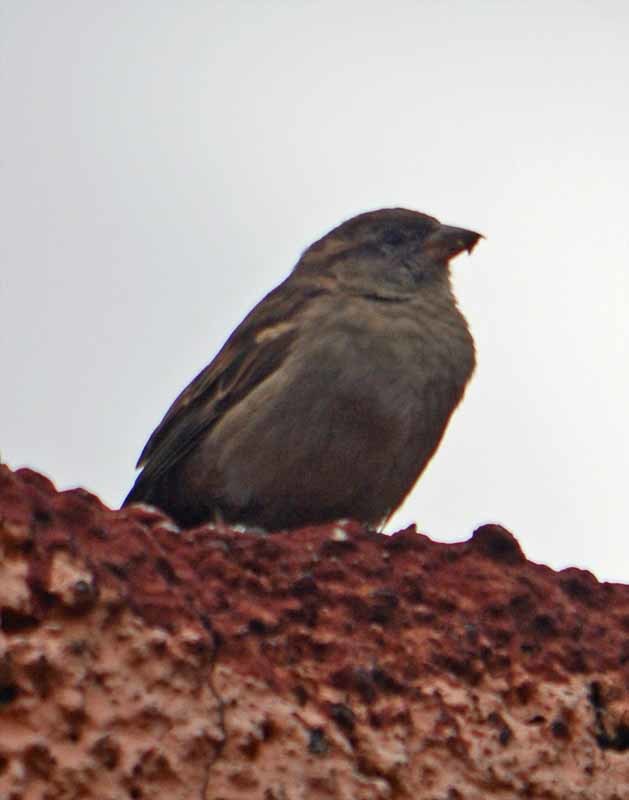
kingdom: Animalia
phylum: Chordata
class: Aves
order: Passeriformes
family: Passeridae
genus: Passer
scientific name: Passer domesticus
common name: House sparrow
